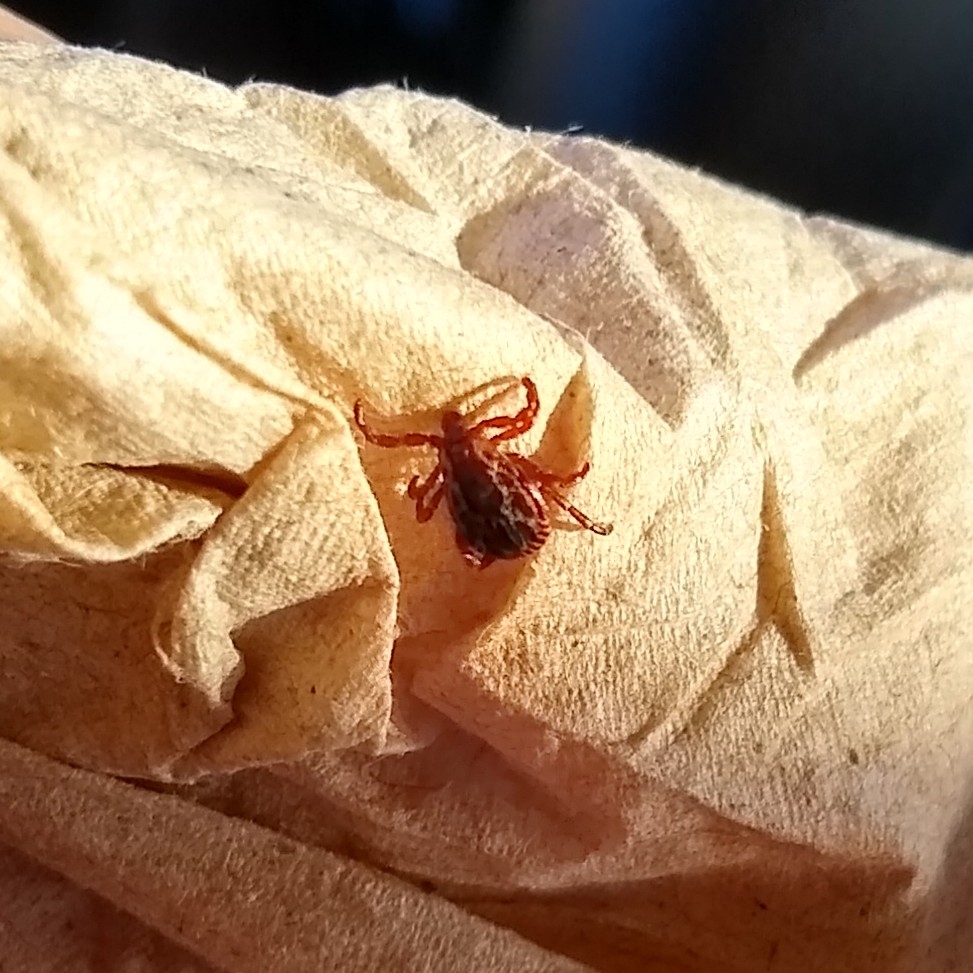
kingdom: Animalia
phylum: Arthropoda
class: Arachnida
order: Ixodida
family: Ixodidae
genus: Dermacentor
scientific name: Dermacentor variabilis
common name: American dog tick
